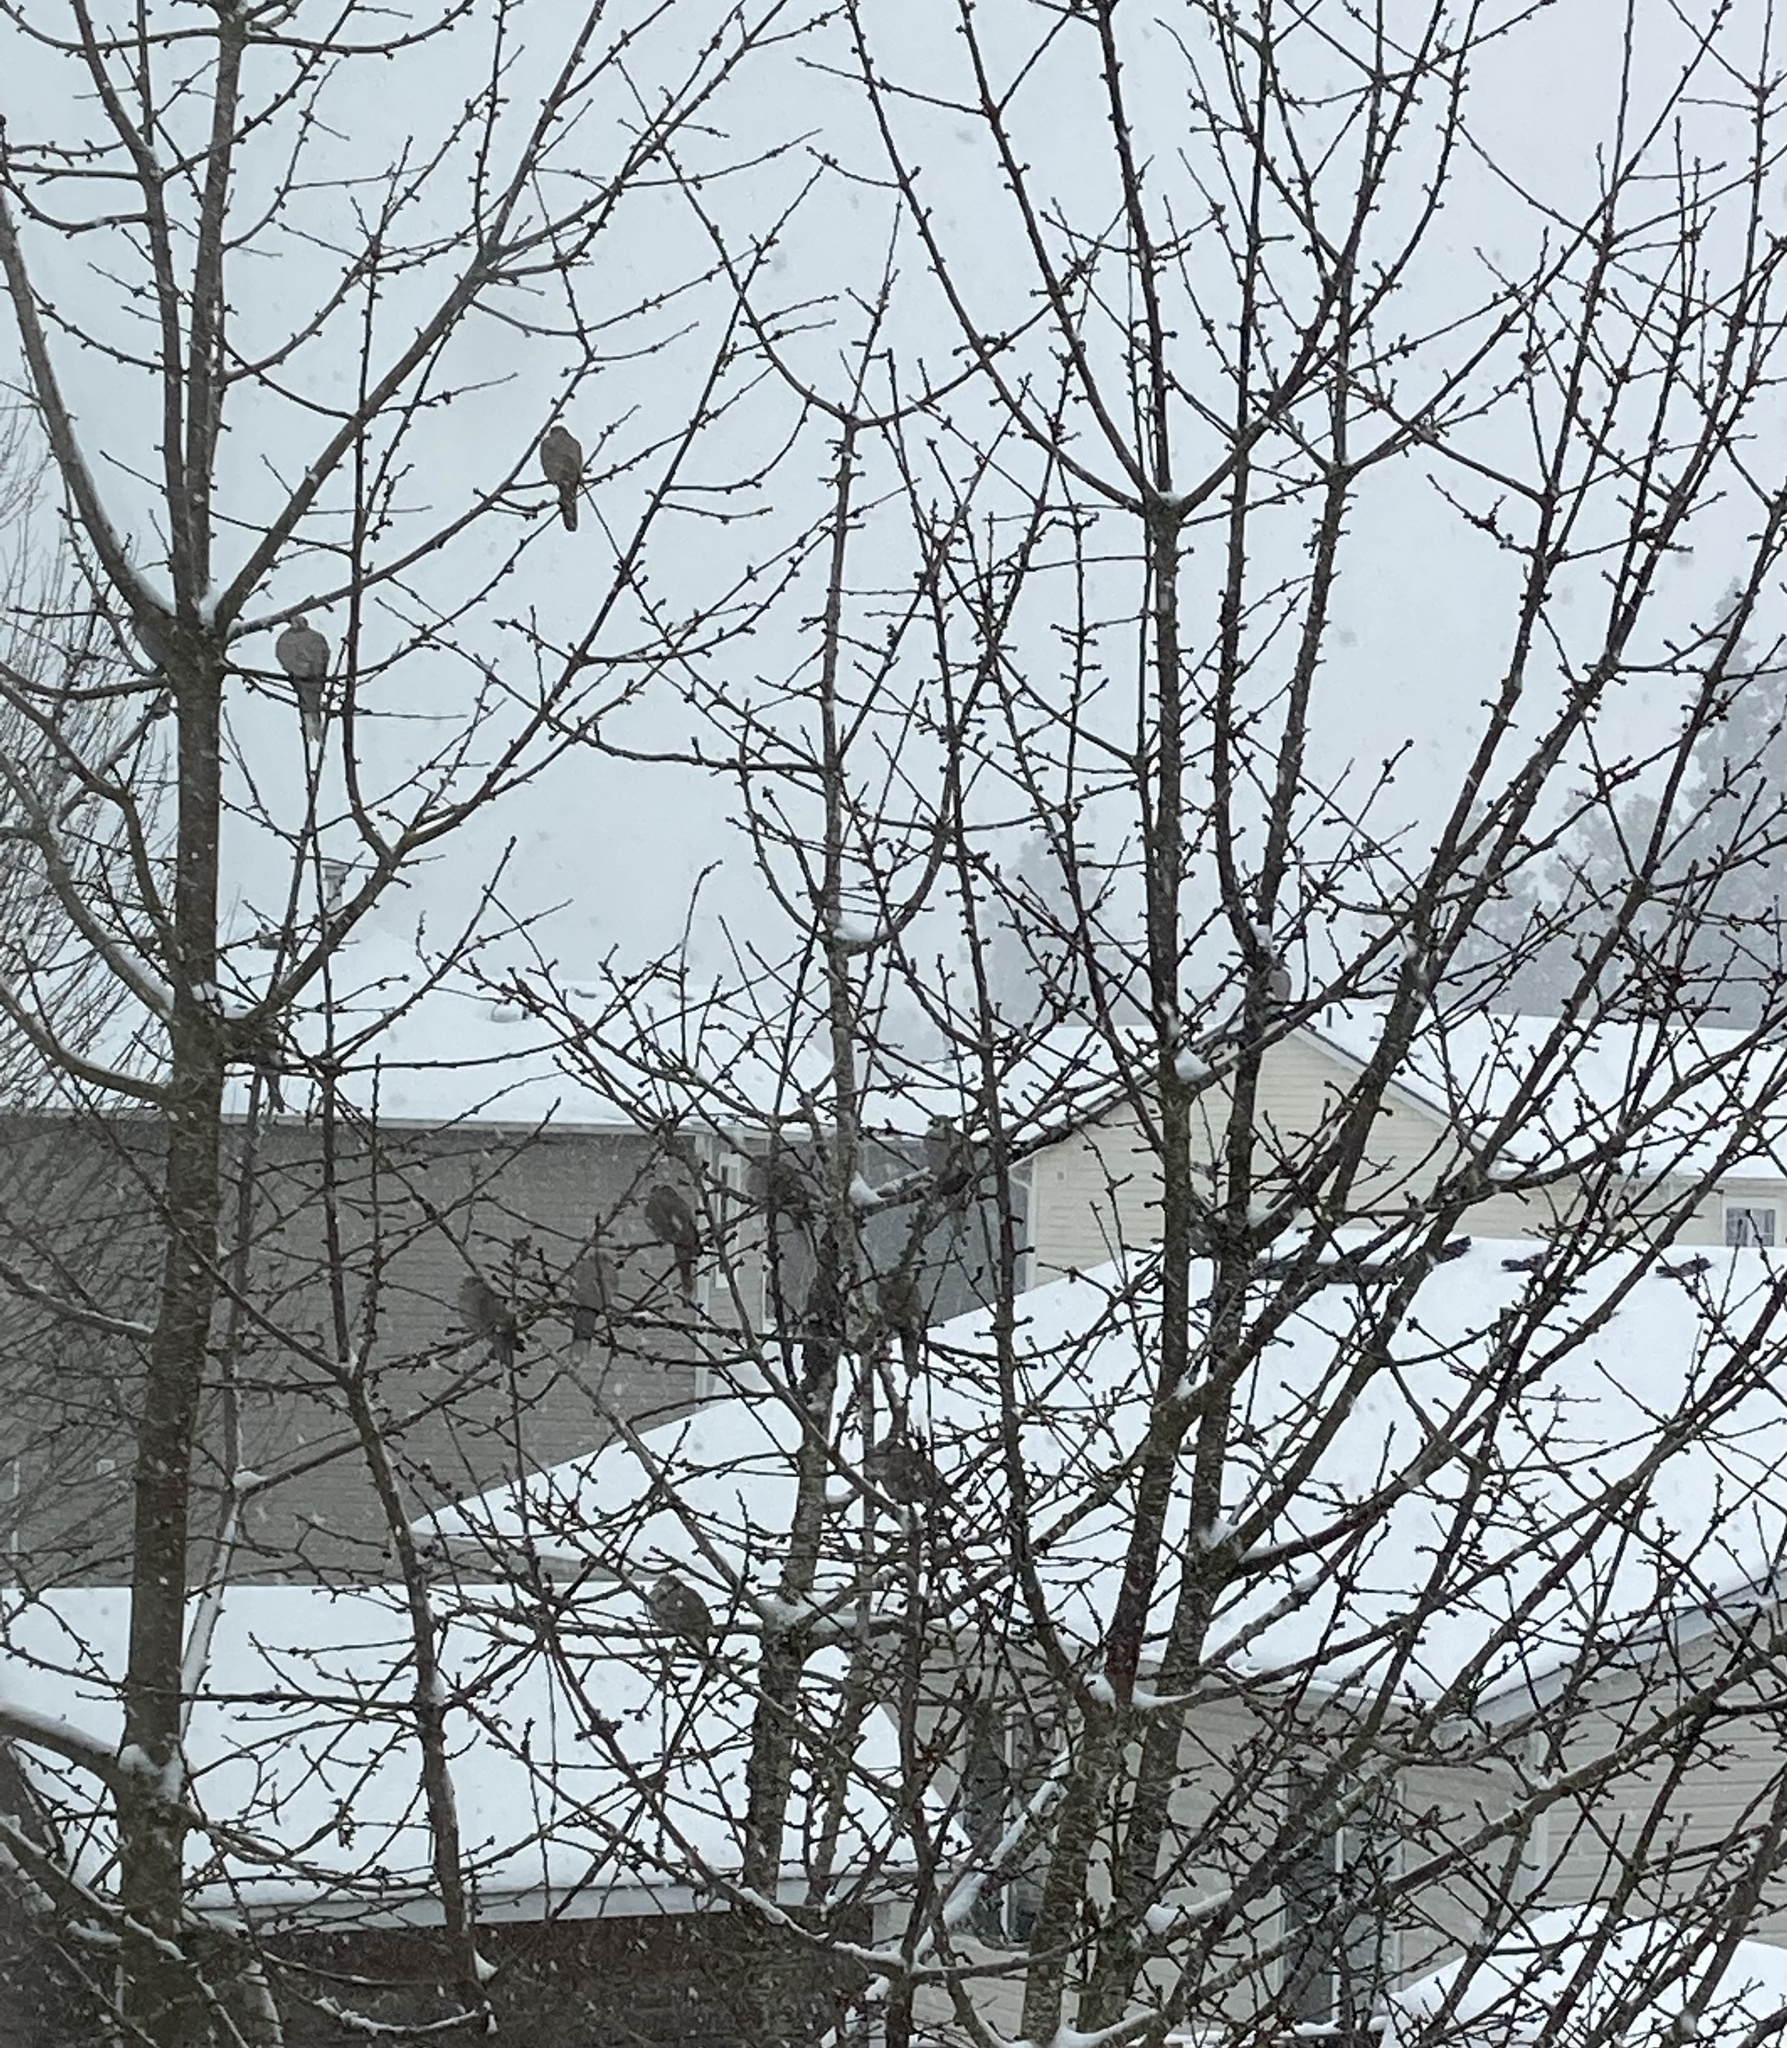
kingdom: Animalia
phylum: Chordata
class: Aves
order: Columbiformes
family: Columbidae
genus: Streptopelia
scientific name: Streptopelia decaocto
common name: Eurasian collared dove
